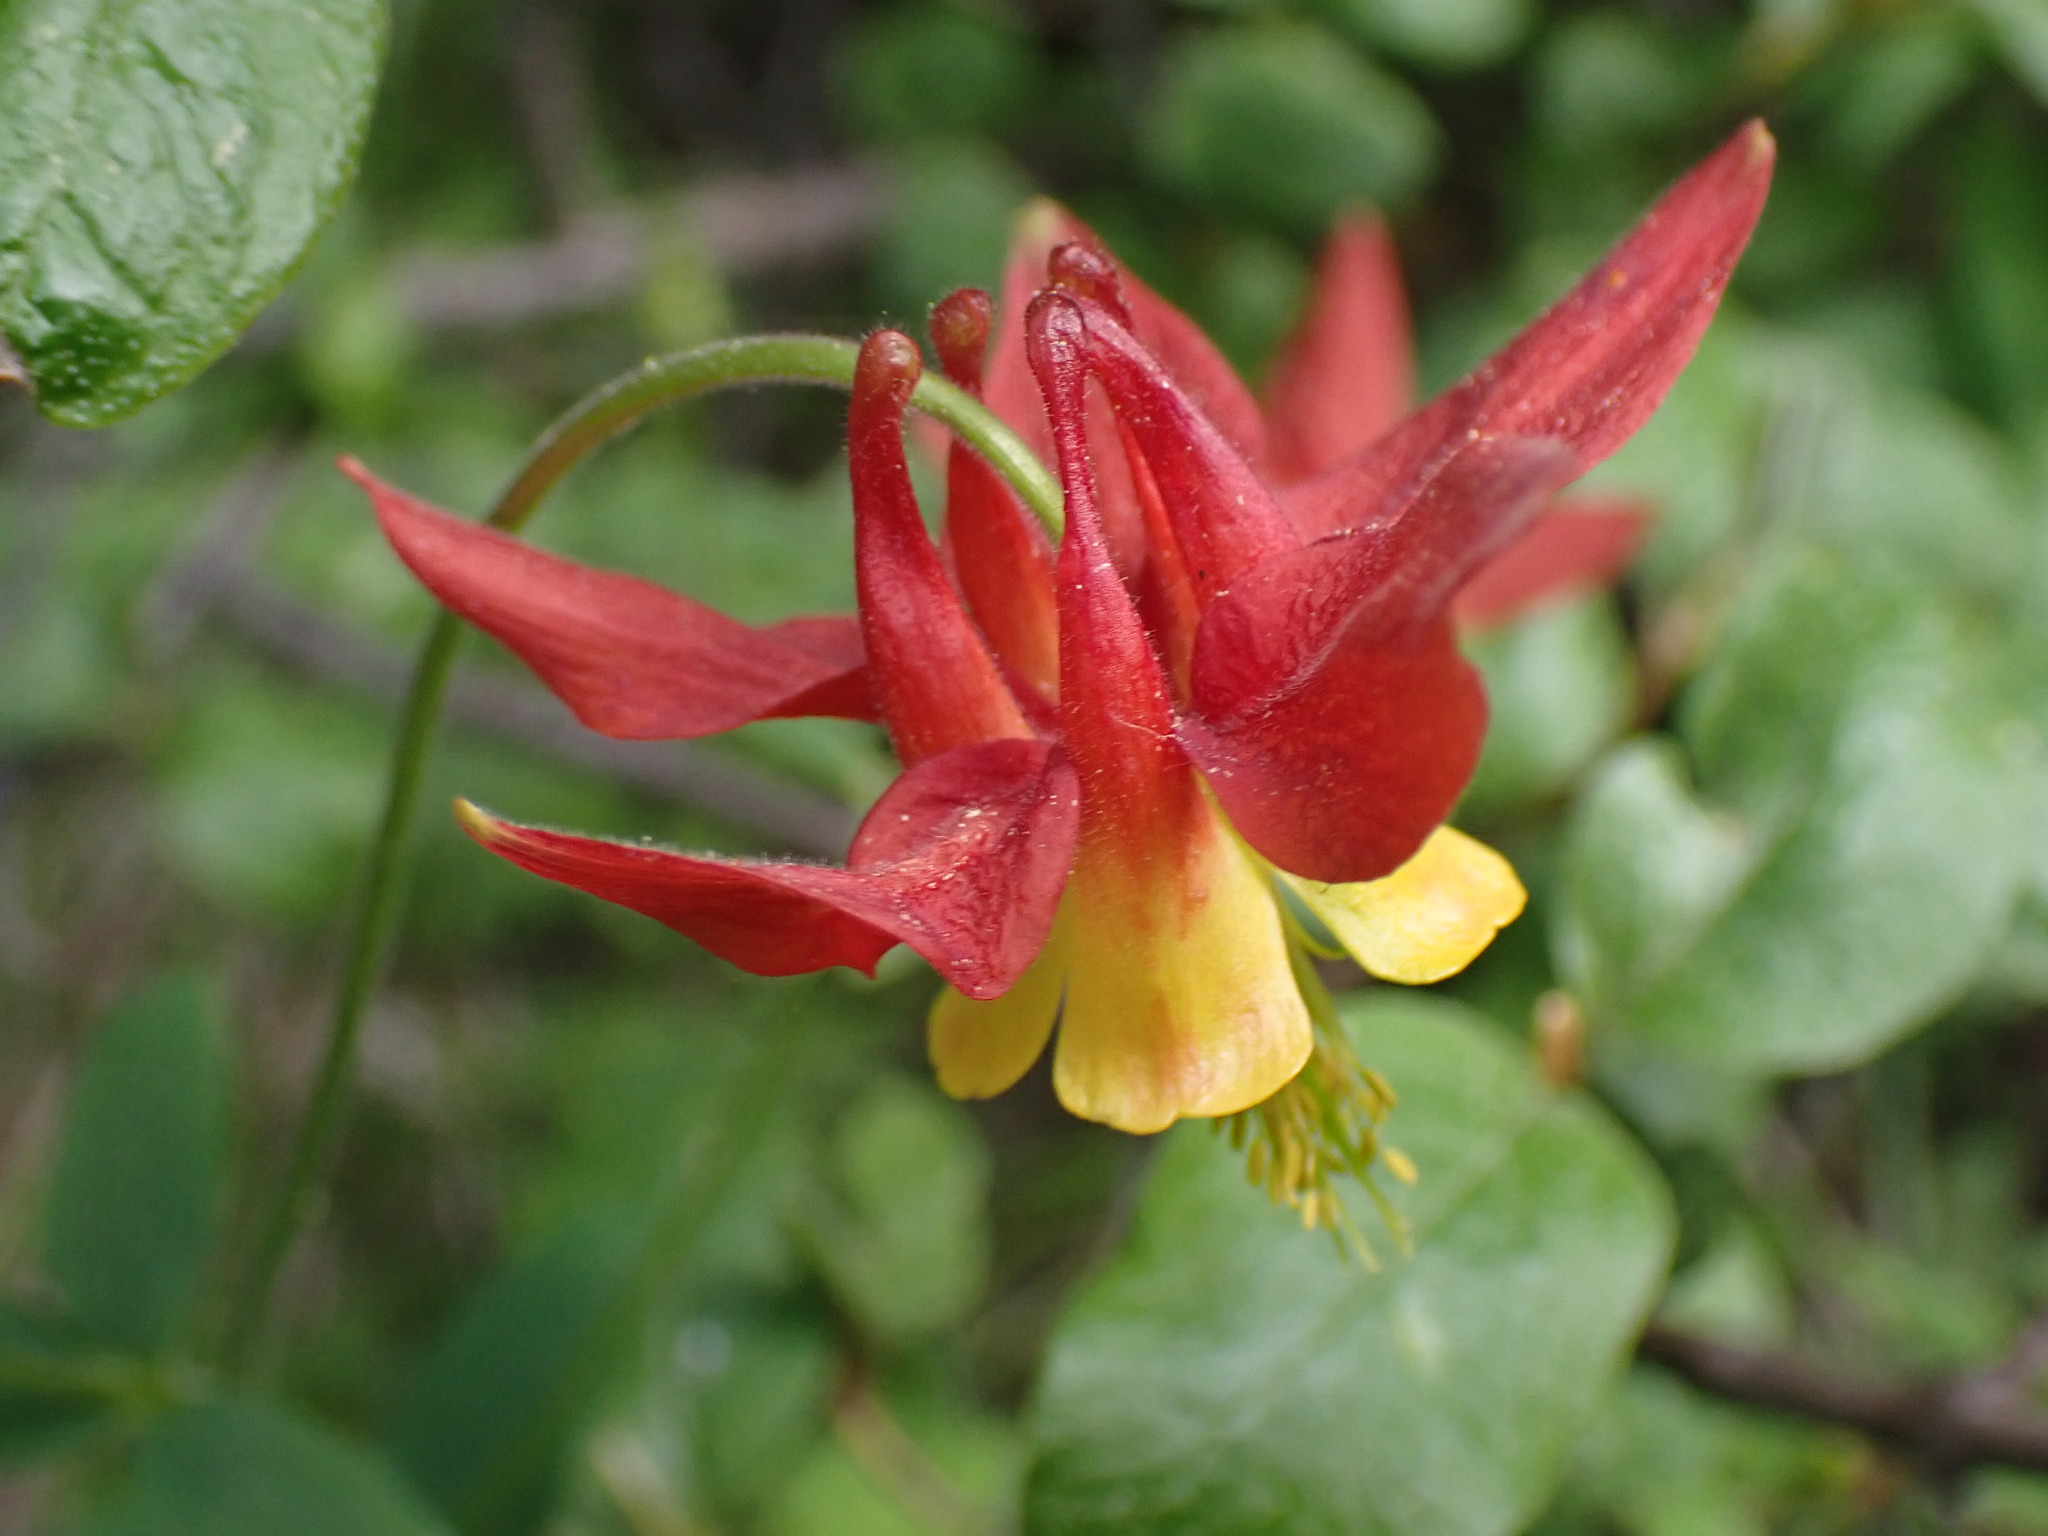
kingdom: Plantae
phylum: Tracheophyta
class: Magnoliopsida
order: Ranunculales
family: Ranunculaceae
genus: Aquilegia
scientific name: Aquilegia formosa
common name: Sitka columbine
